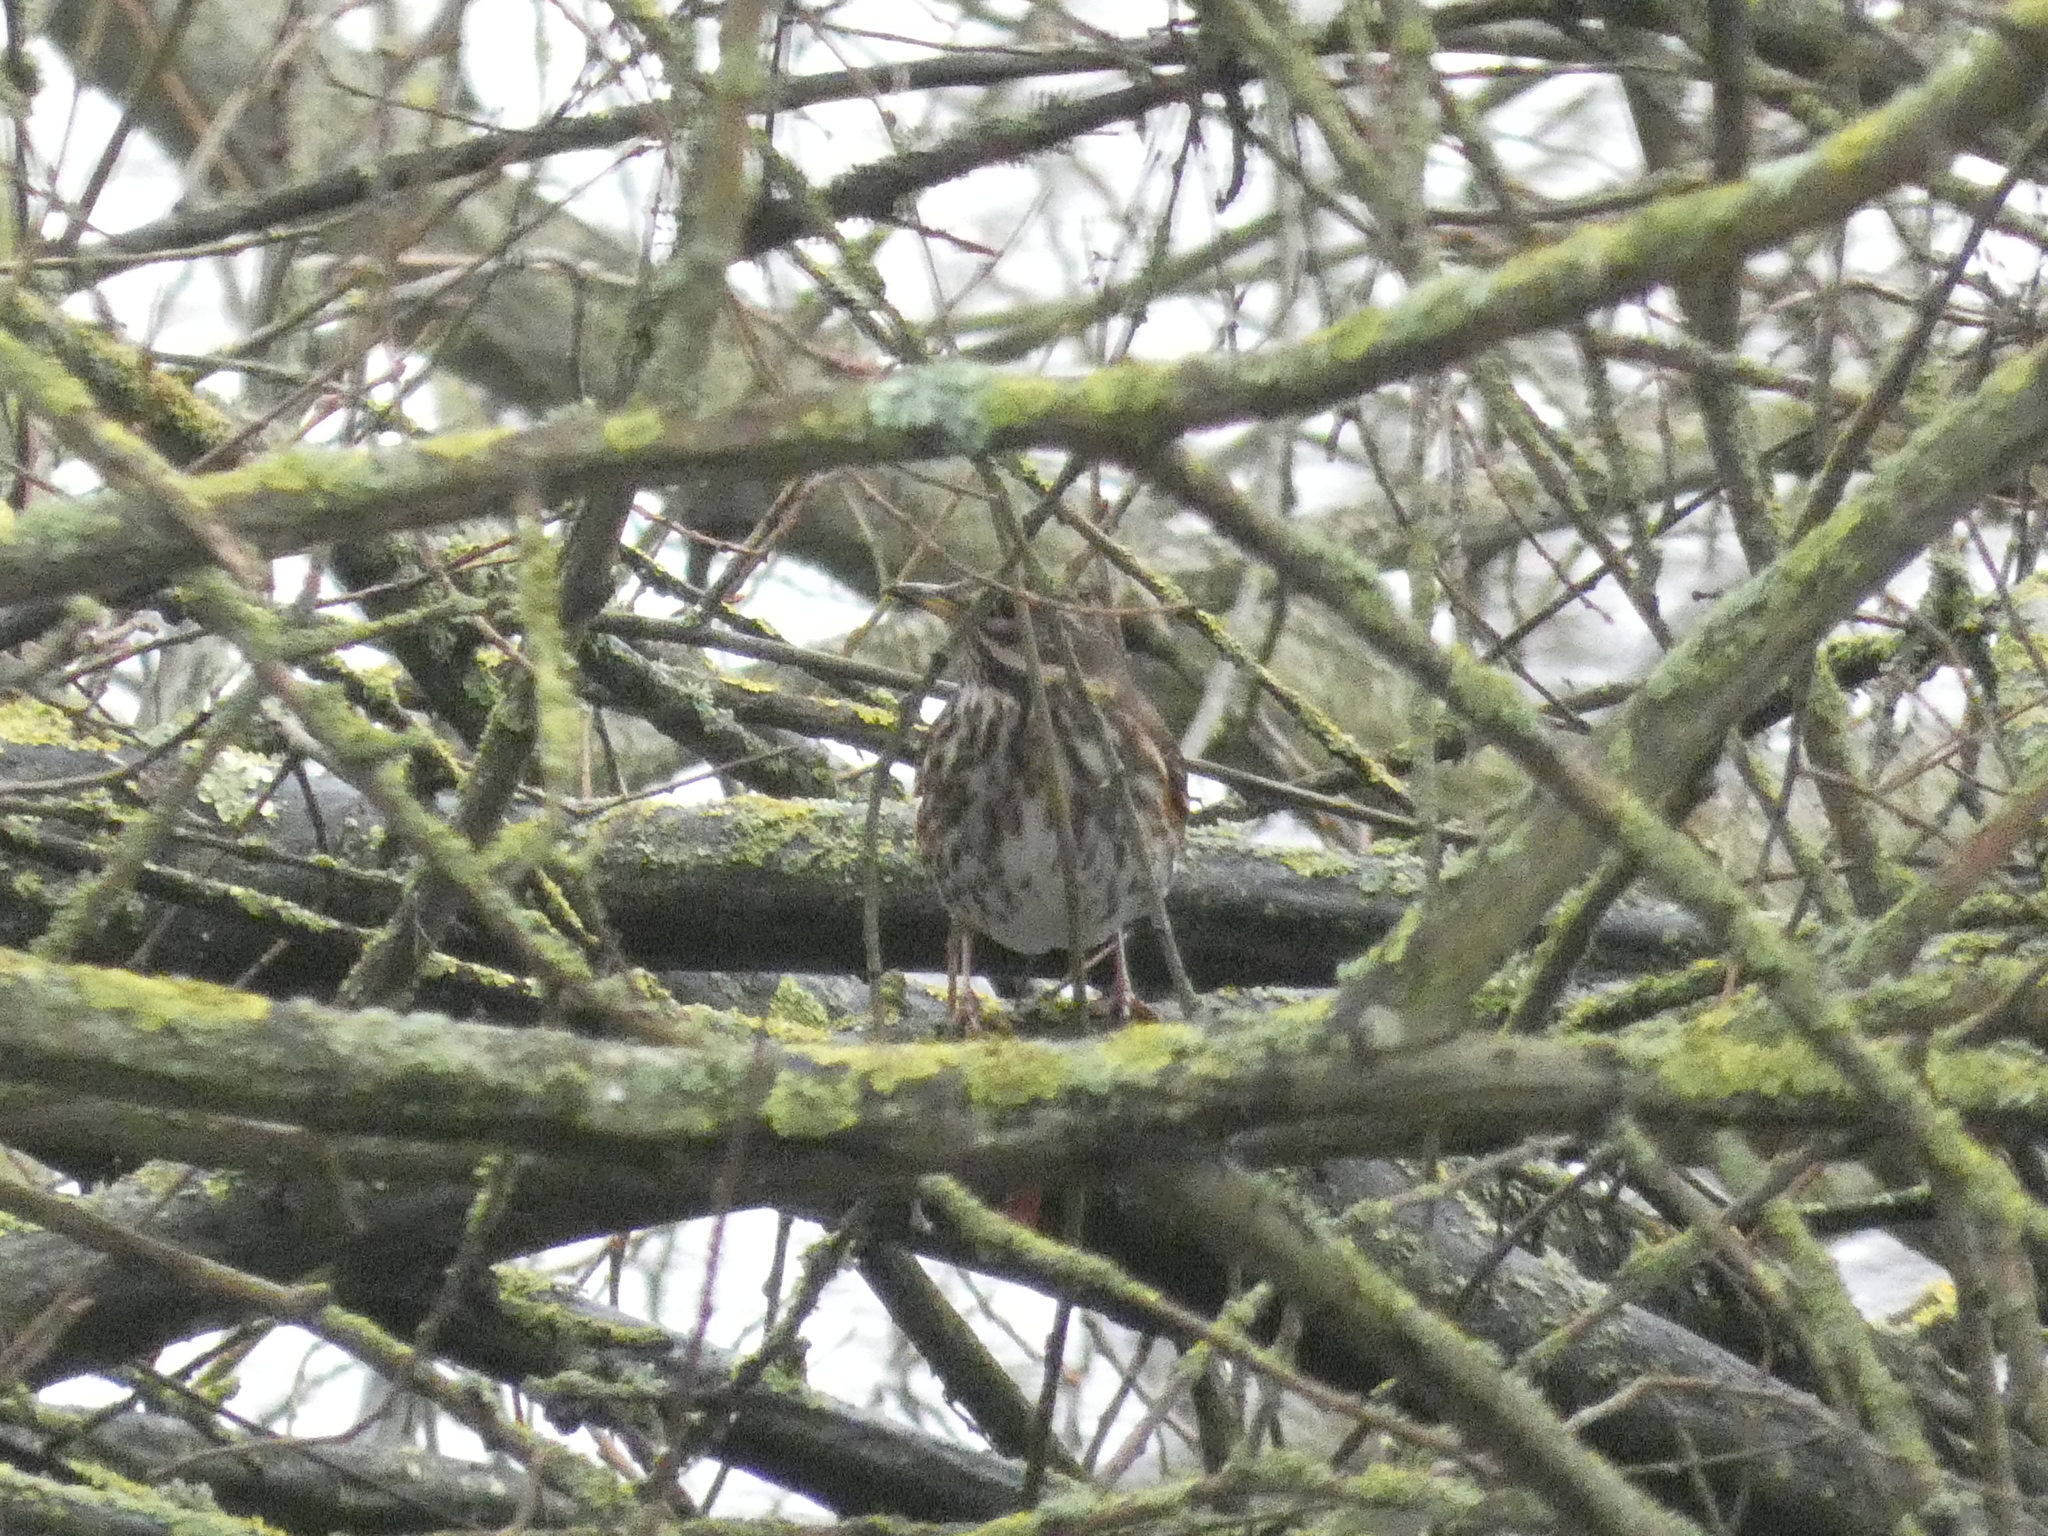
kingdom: Animalia
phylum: Chordata
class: Aves
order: Passeriformes
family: Turdidae
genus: Turdus
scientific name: Turdus iliacus
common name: Redwing
